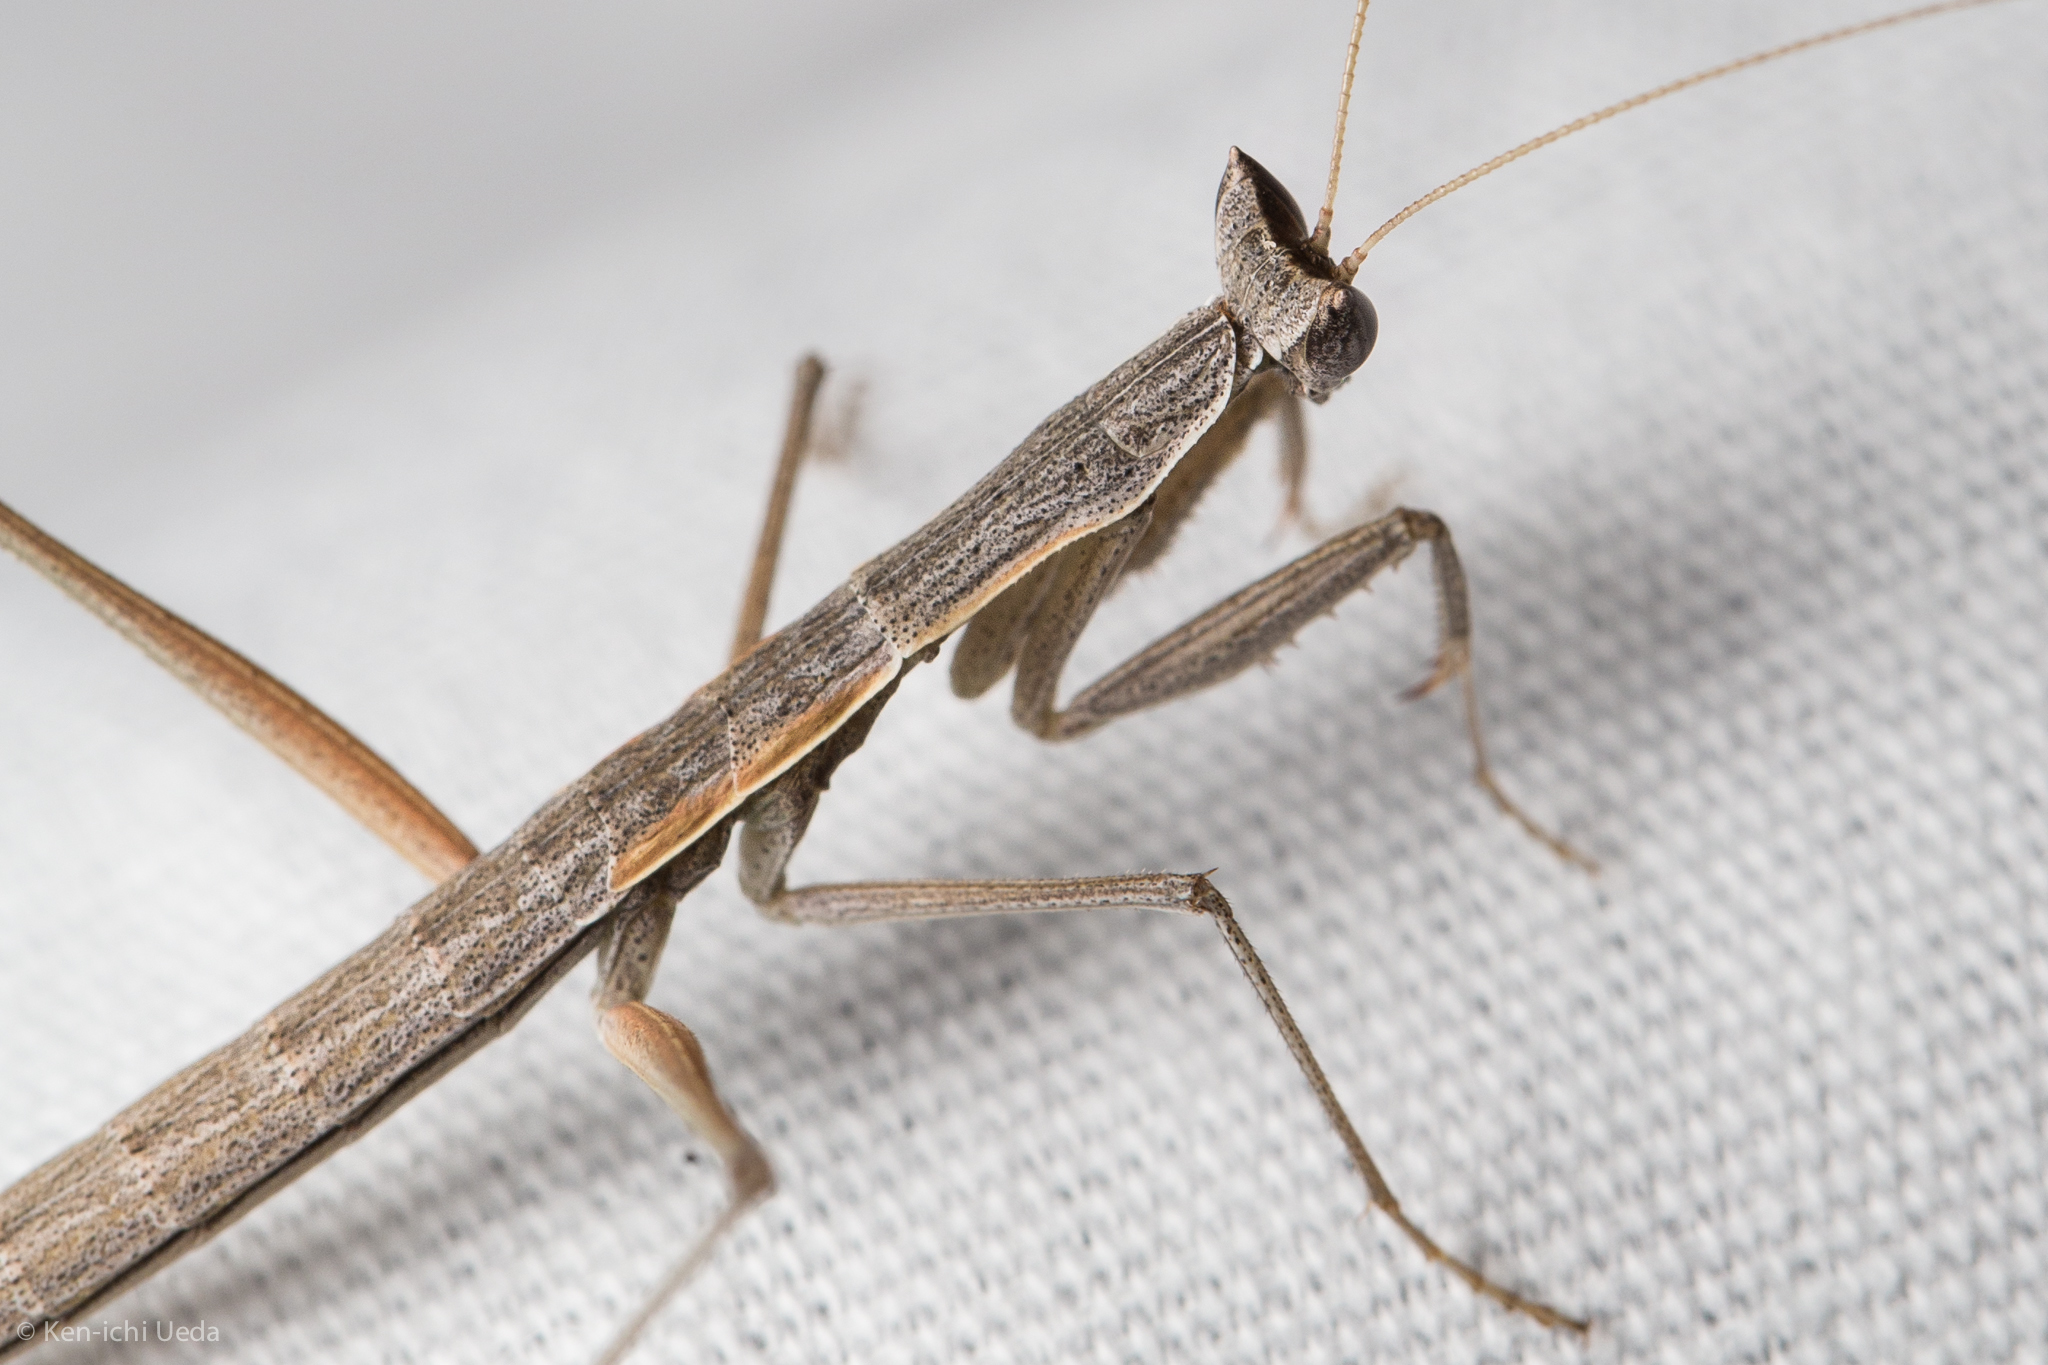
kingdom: Animalia
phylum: Arthropoda
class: Insecta
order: Mantodea
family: Amelidae
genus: Yersiniops
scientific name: Yersiniops solitarius
